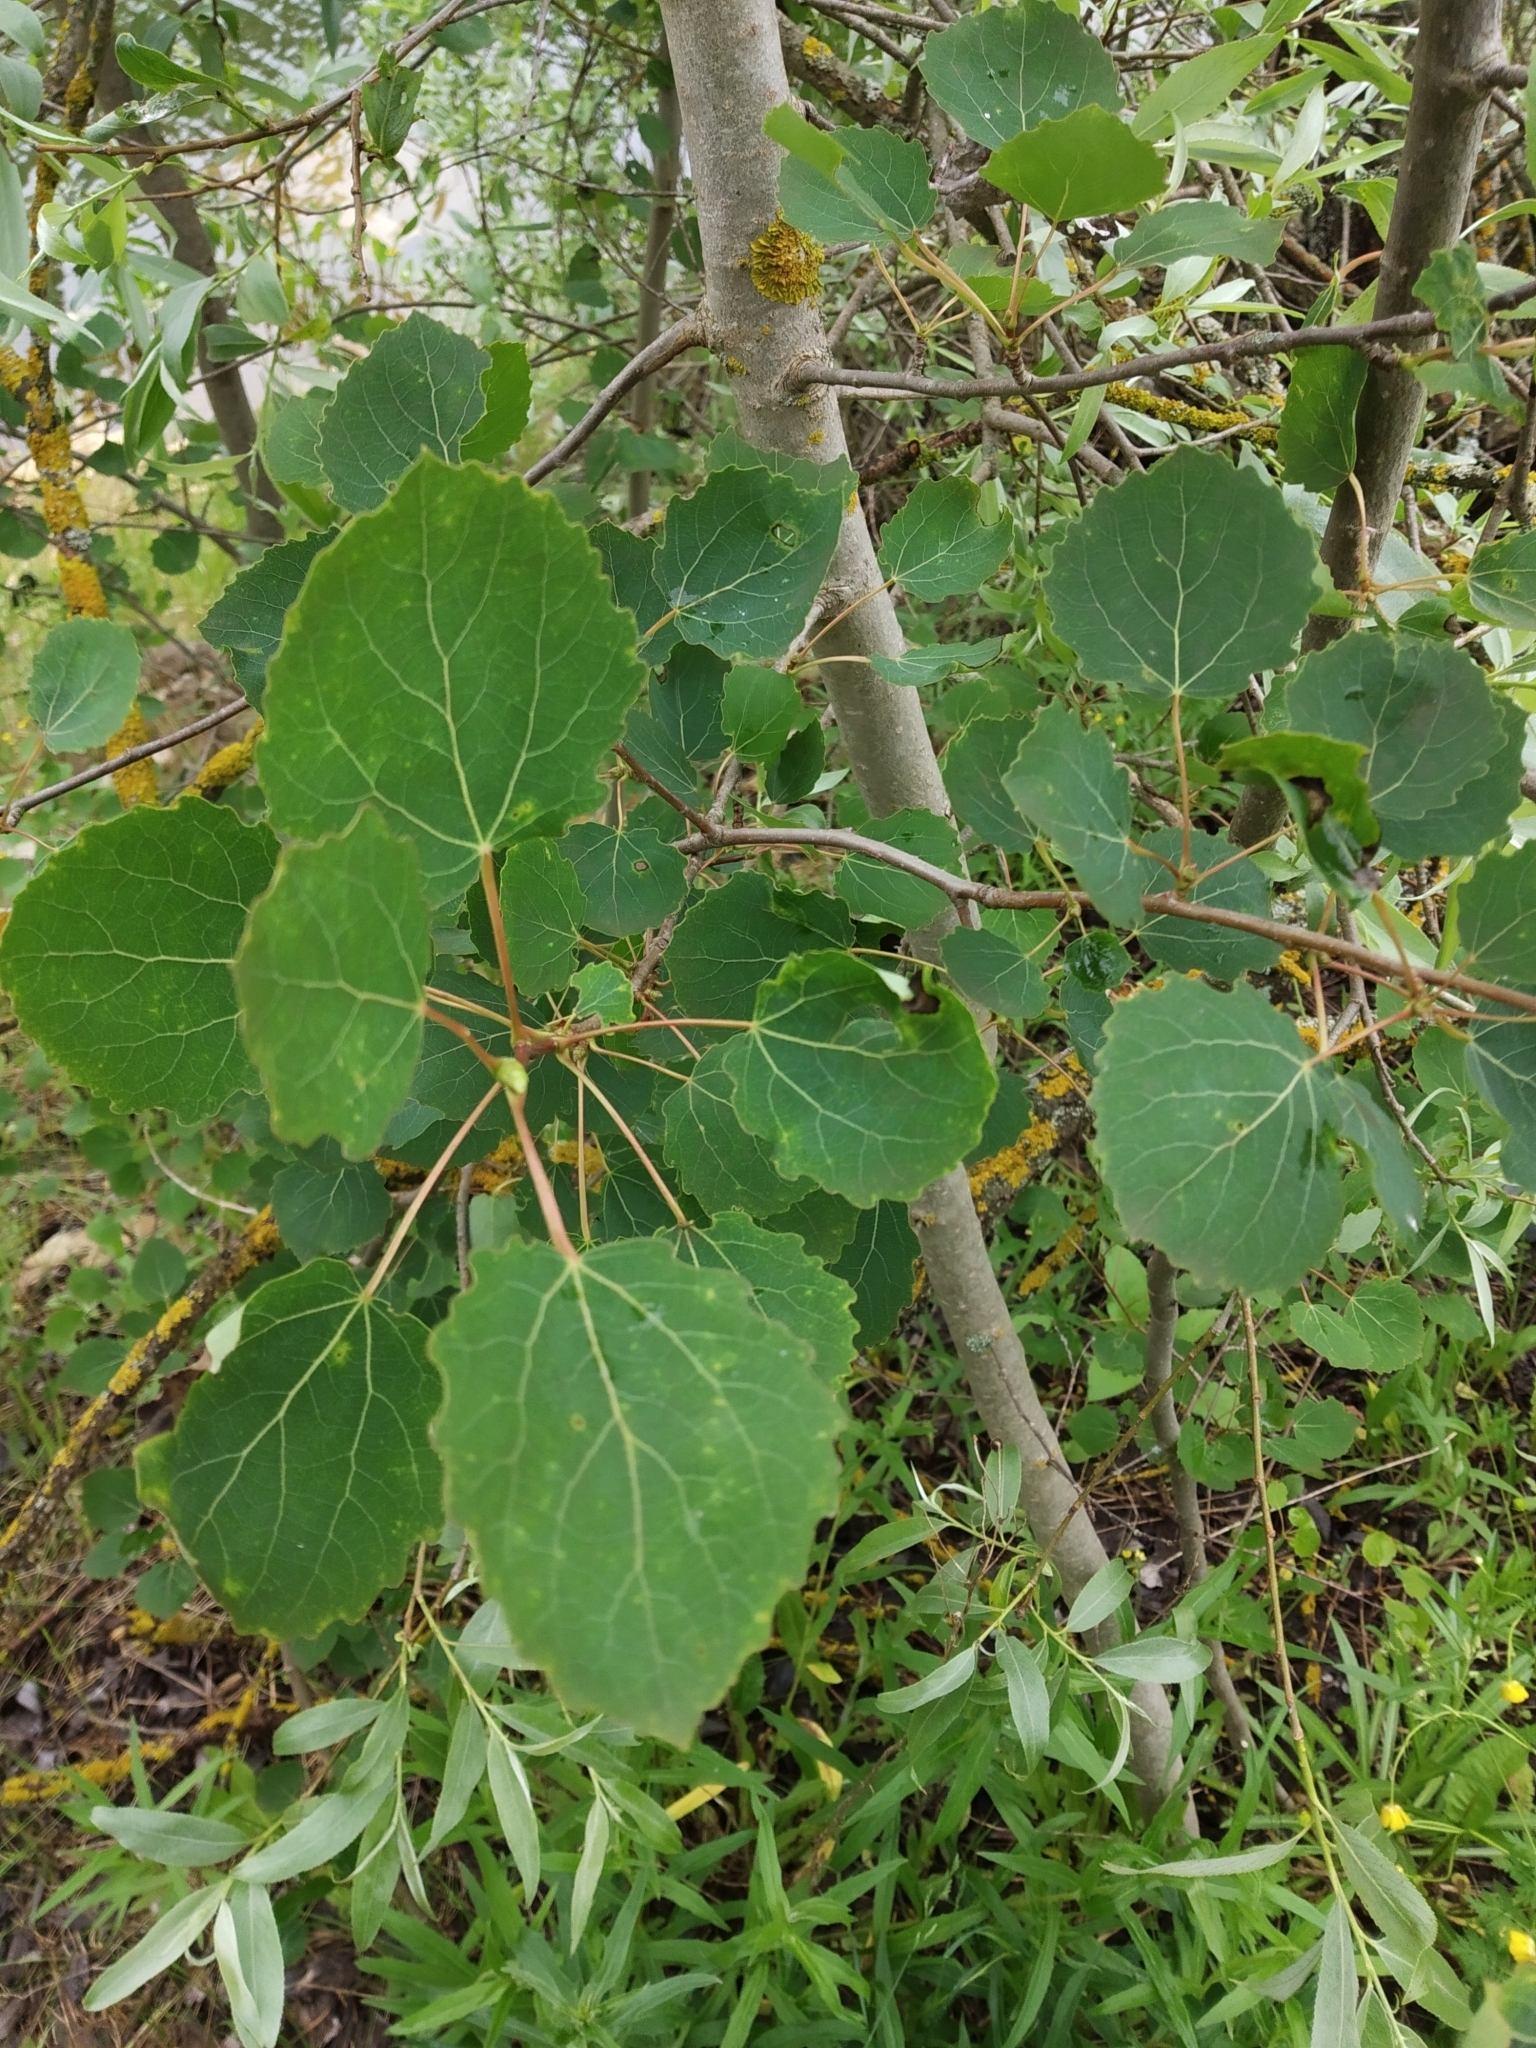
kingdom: Plantae
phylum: Tracheophyta
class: Magnoliopsida
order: Malpighiales
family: Salicaceae
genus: Populus
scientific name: Populus tremula
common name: European aspen
